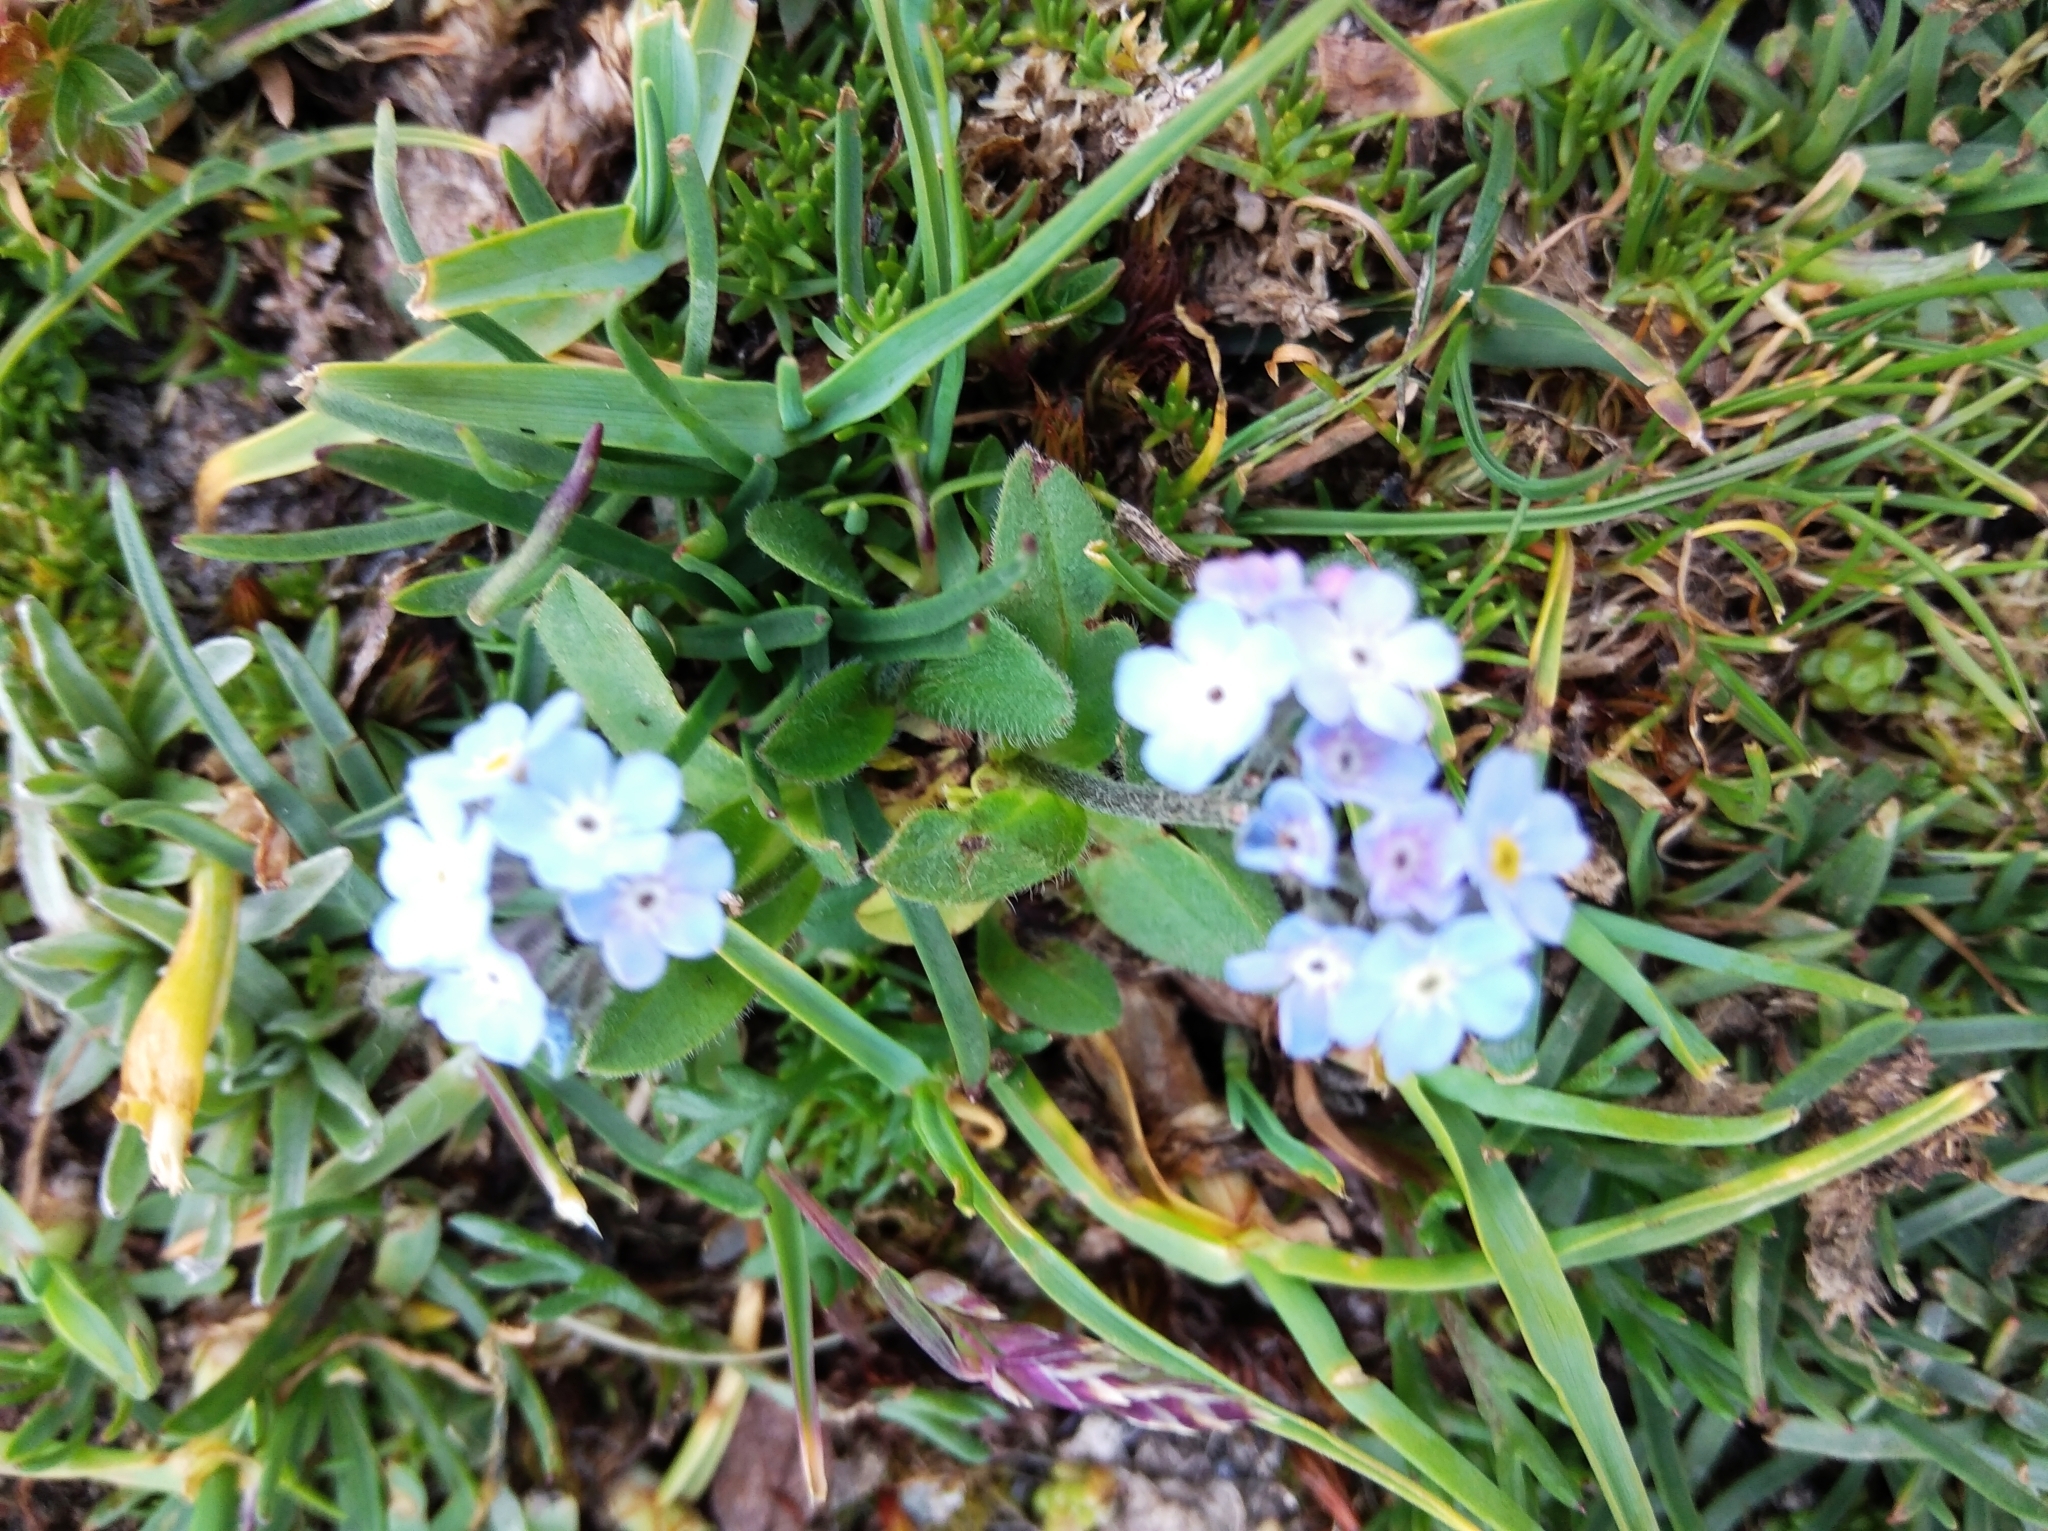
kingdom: Plantae
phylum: Tracheophyta
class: Magnoliopsida
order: Boraginales
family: Boraginaceae
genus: Myosotis
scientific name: Myosotis alpestris
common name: Alpine forget-me-not
